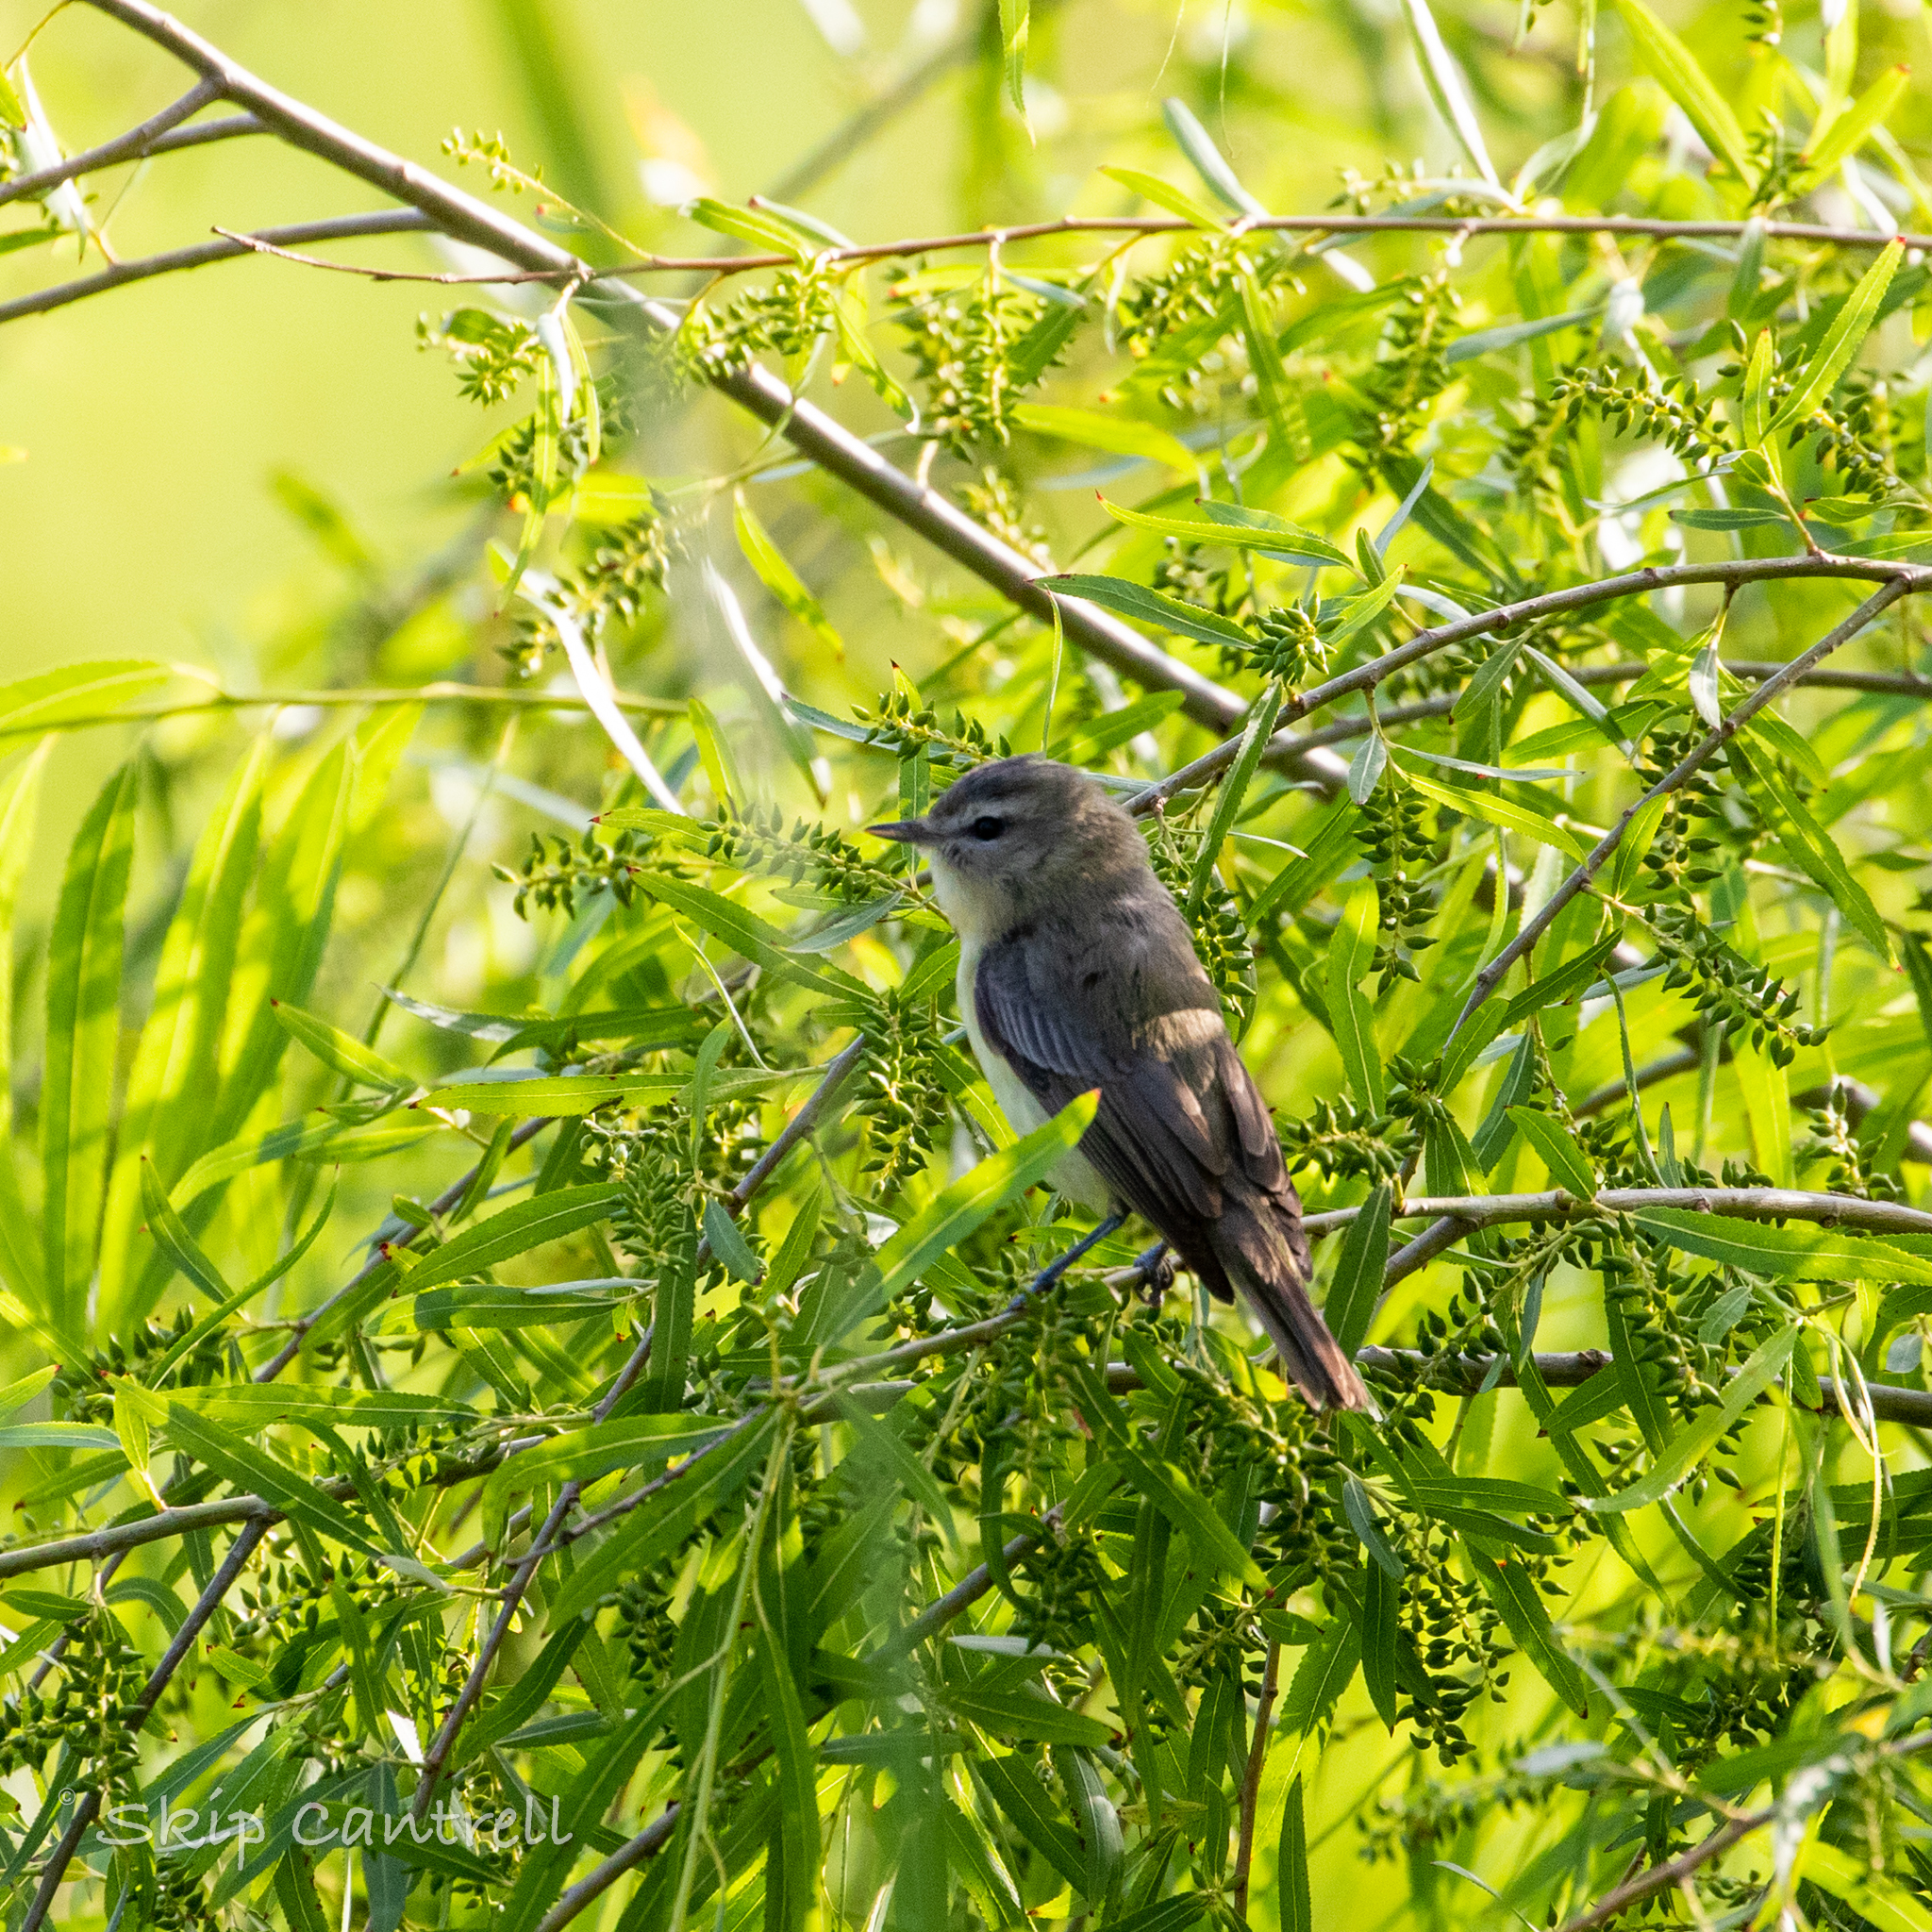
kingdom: Animalia
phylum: Chordata
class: Aves
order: Passeriformes
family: Vireonidae
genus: Vireo
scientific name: Vireo philadelphicus
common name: Philadelphia vireo
